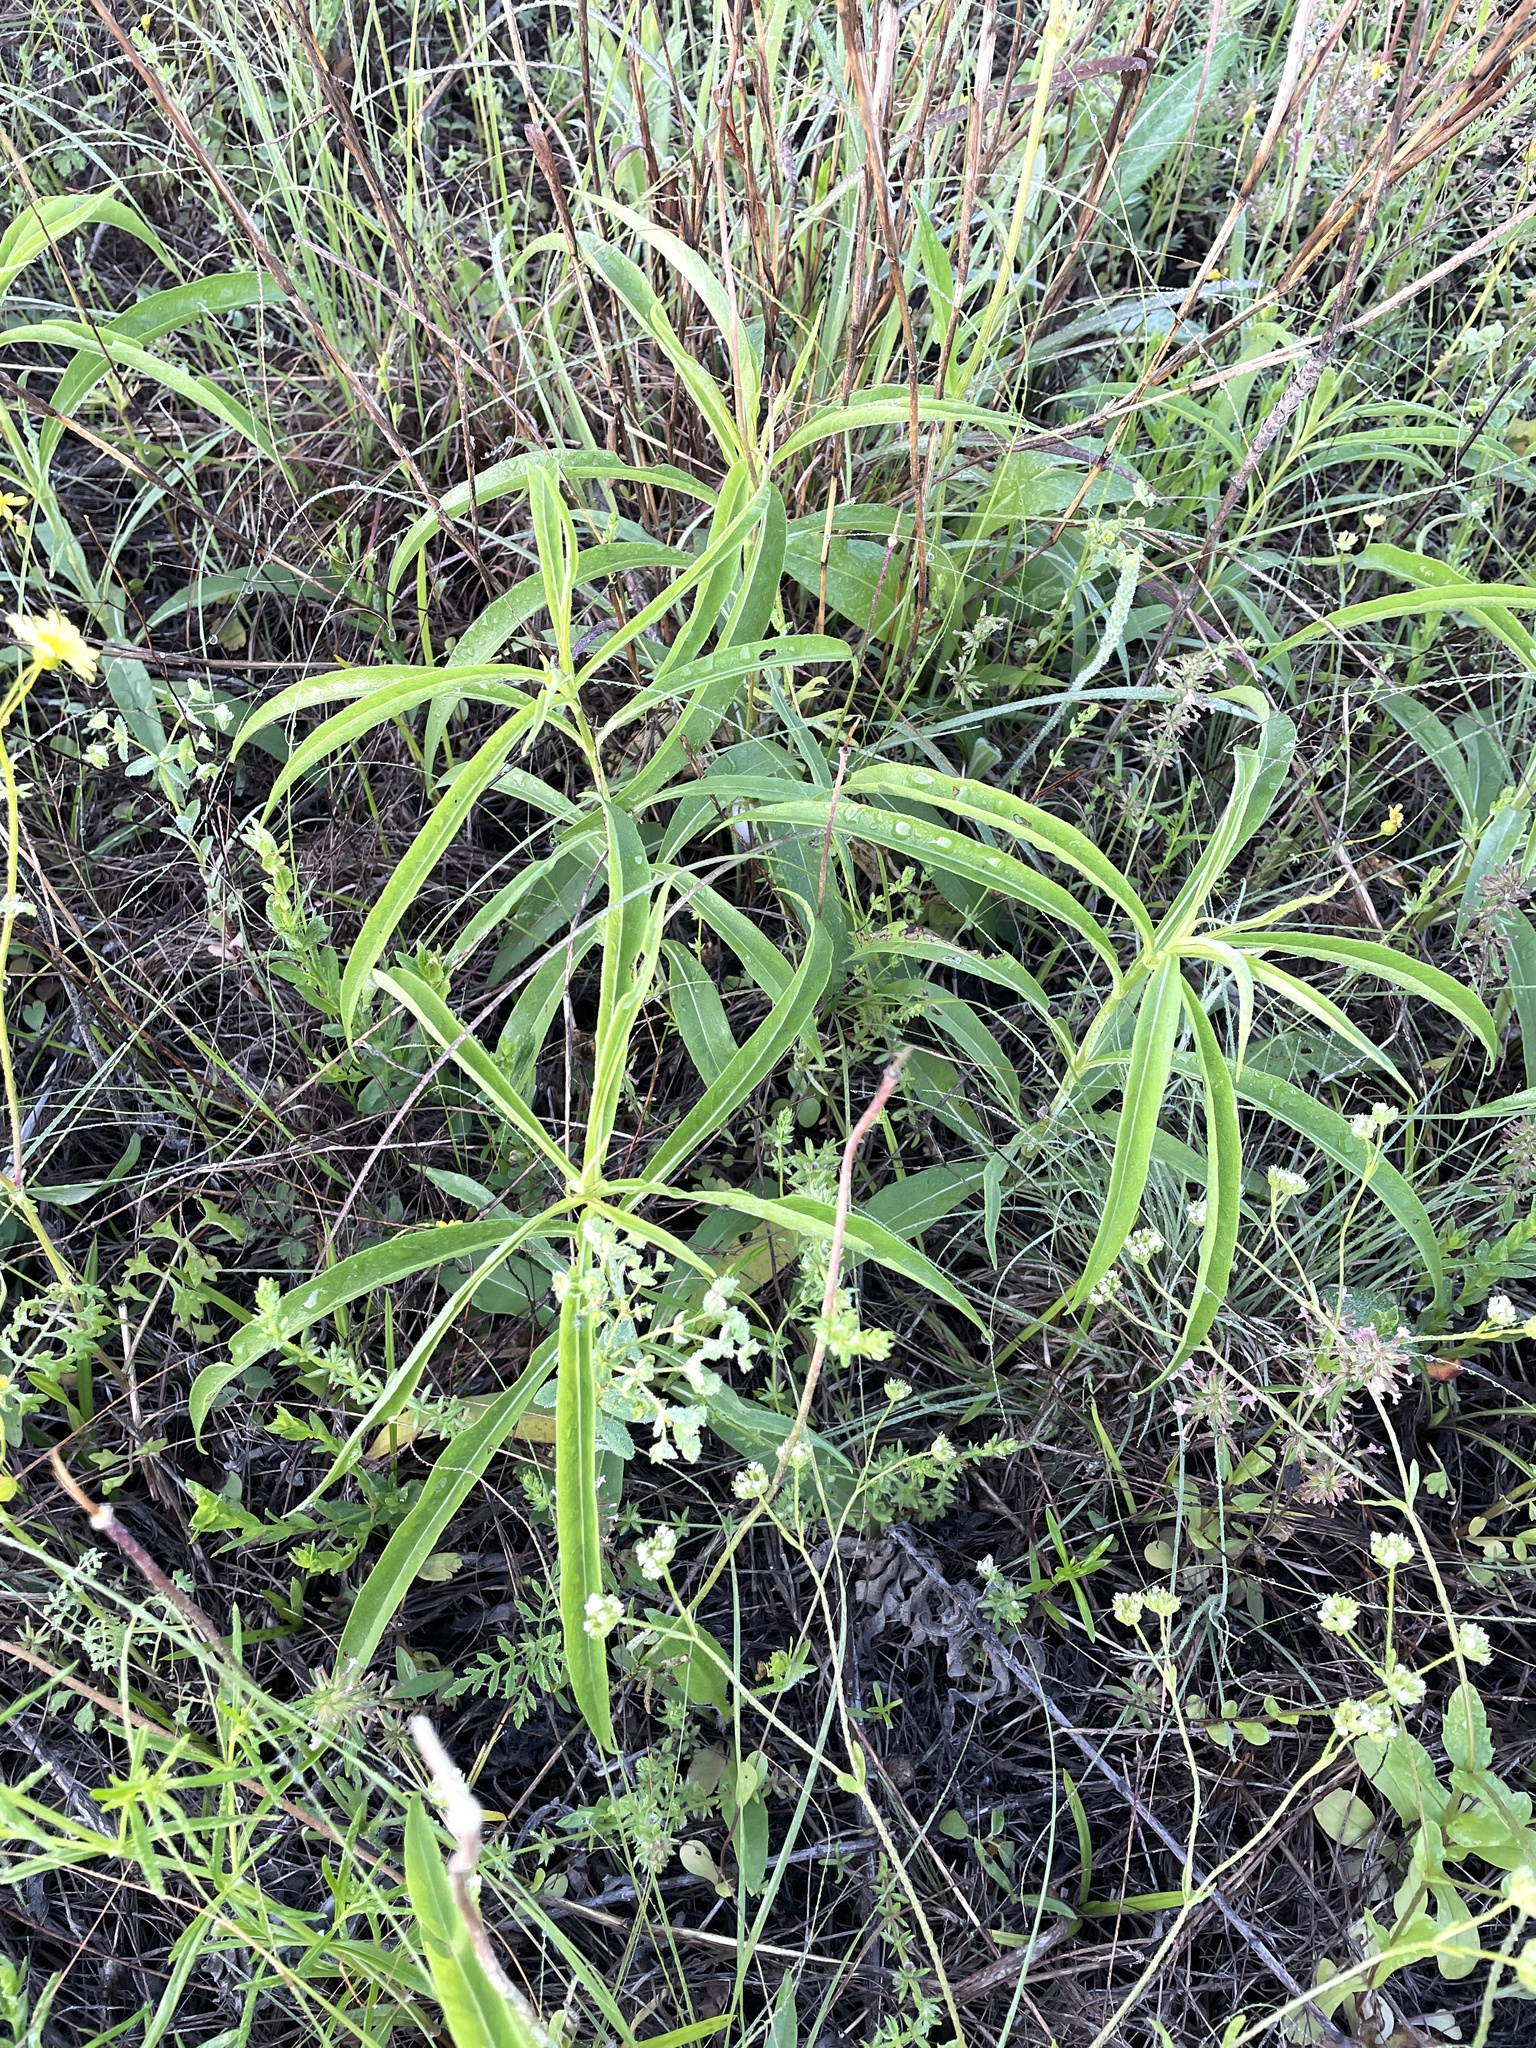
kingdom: Plantae
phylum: Tracheophyta
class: Magnoliopsida
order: Asterales
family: Asteraceae
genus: Helianthus
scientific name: Helianthus maximiliani
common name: Maximilian's sunflower
